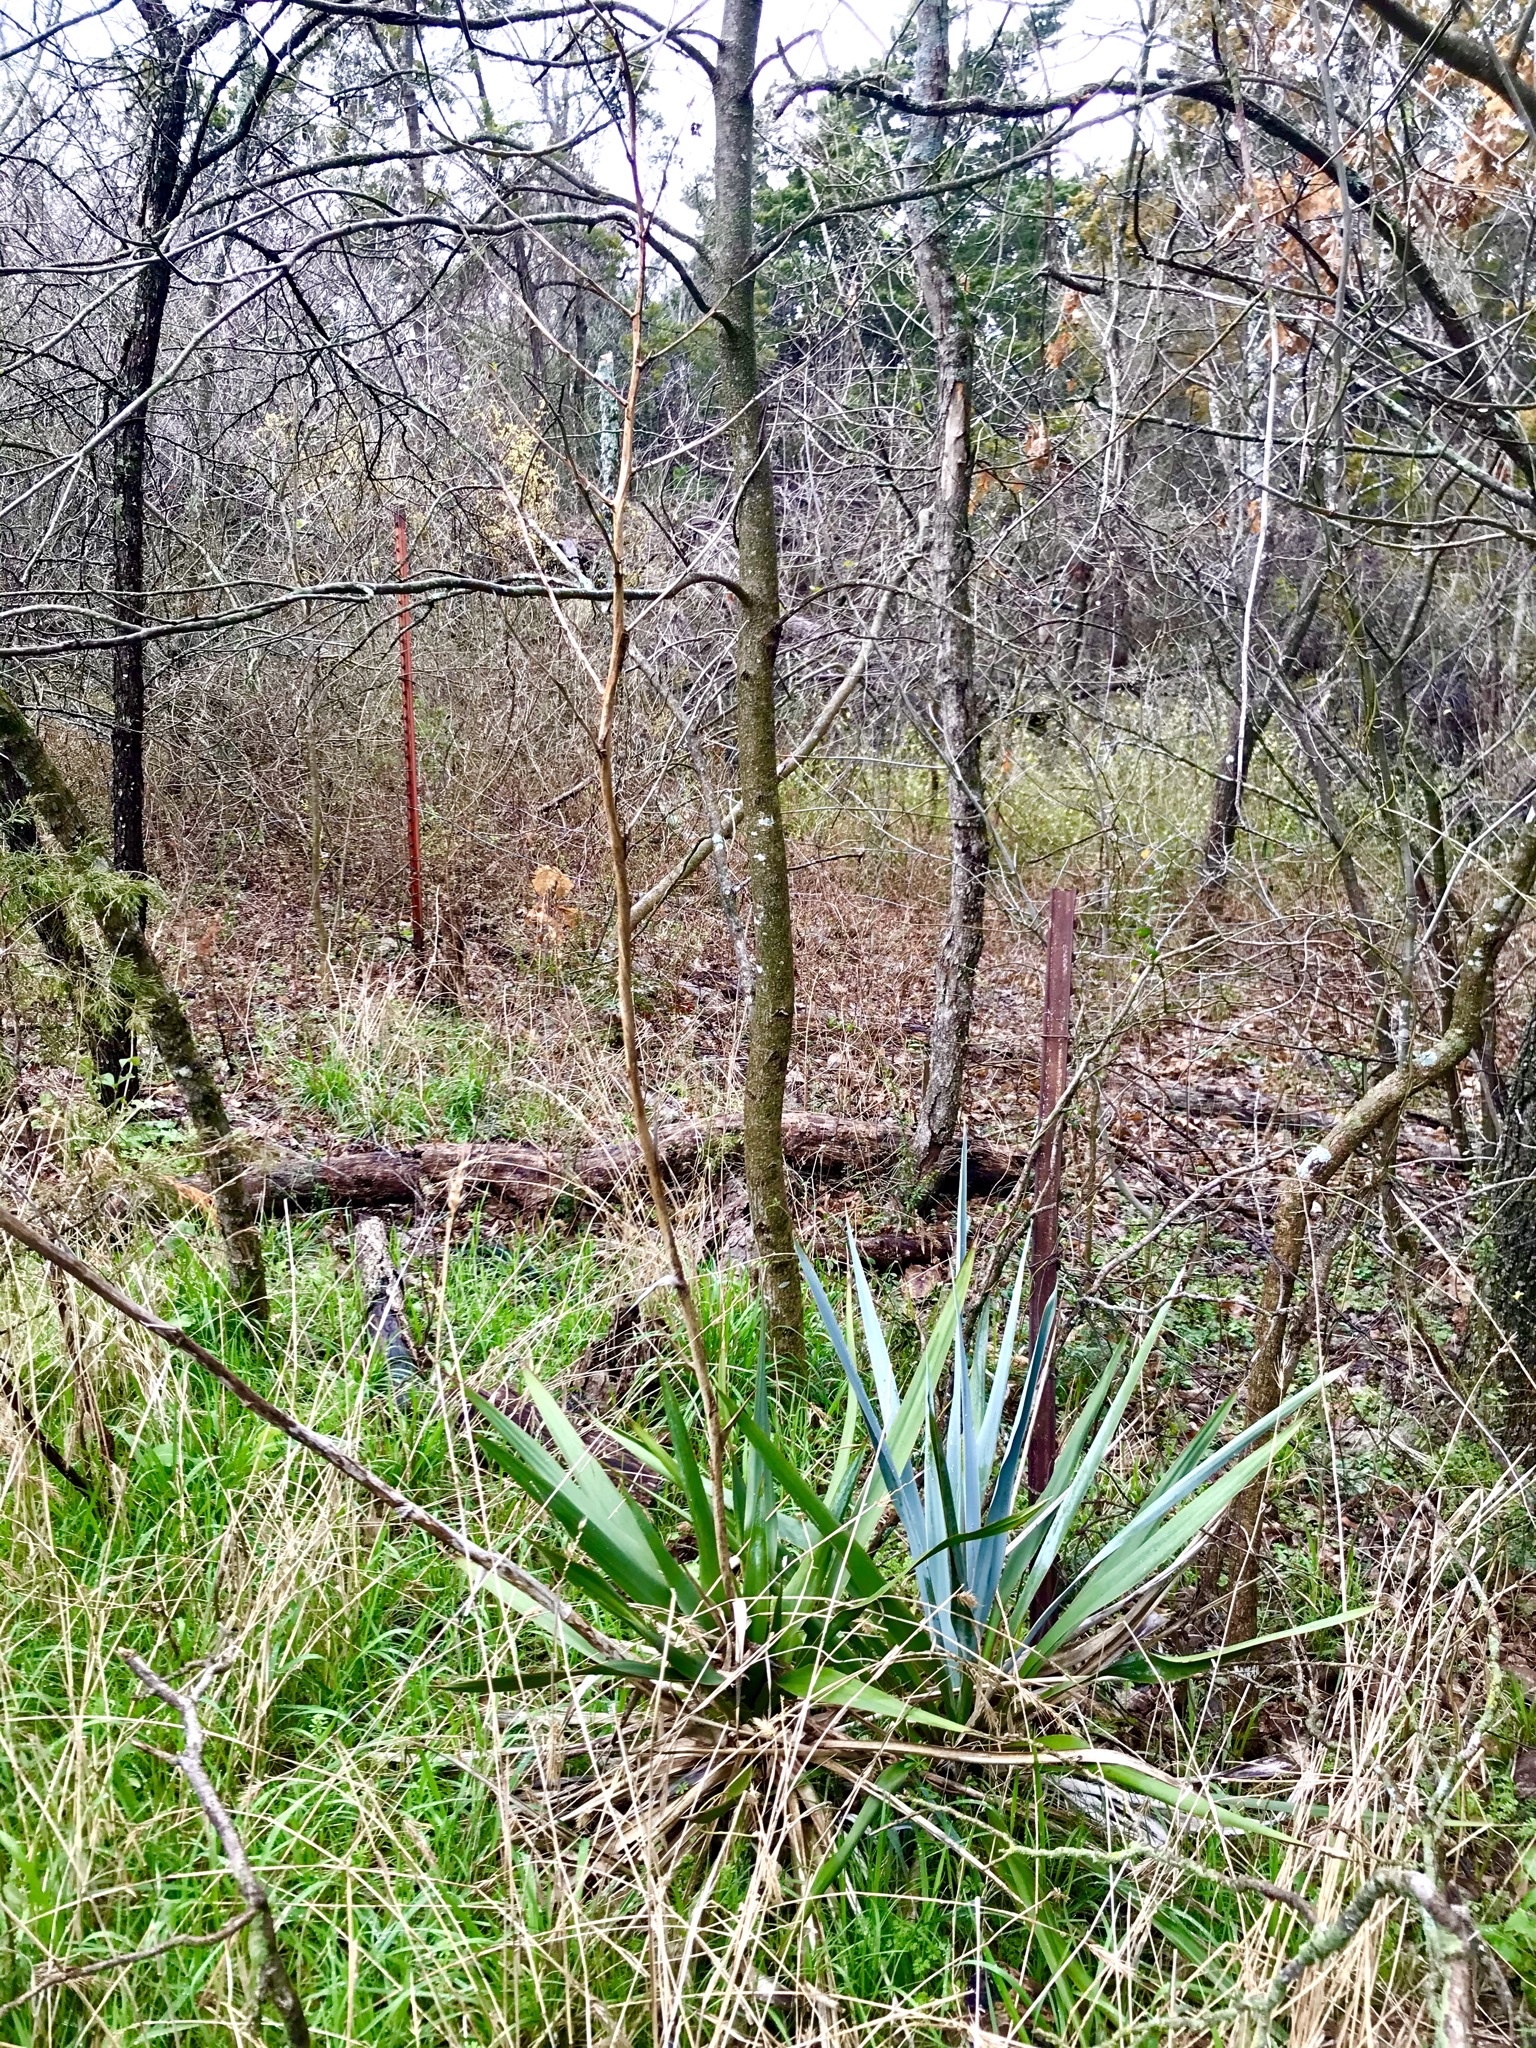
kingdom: Plantae
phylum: Tracheophyta
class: Liliopsida
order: Asparagales
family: Asparagaceae
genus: Yucca
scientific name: Yucca pallida
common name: Pale leaf yucca
